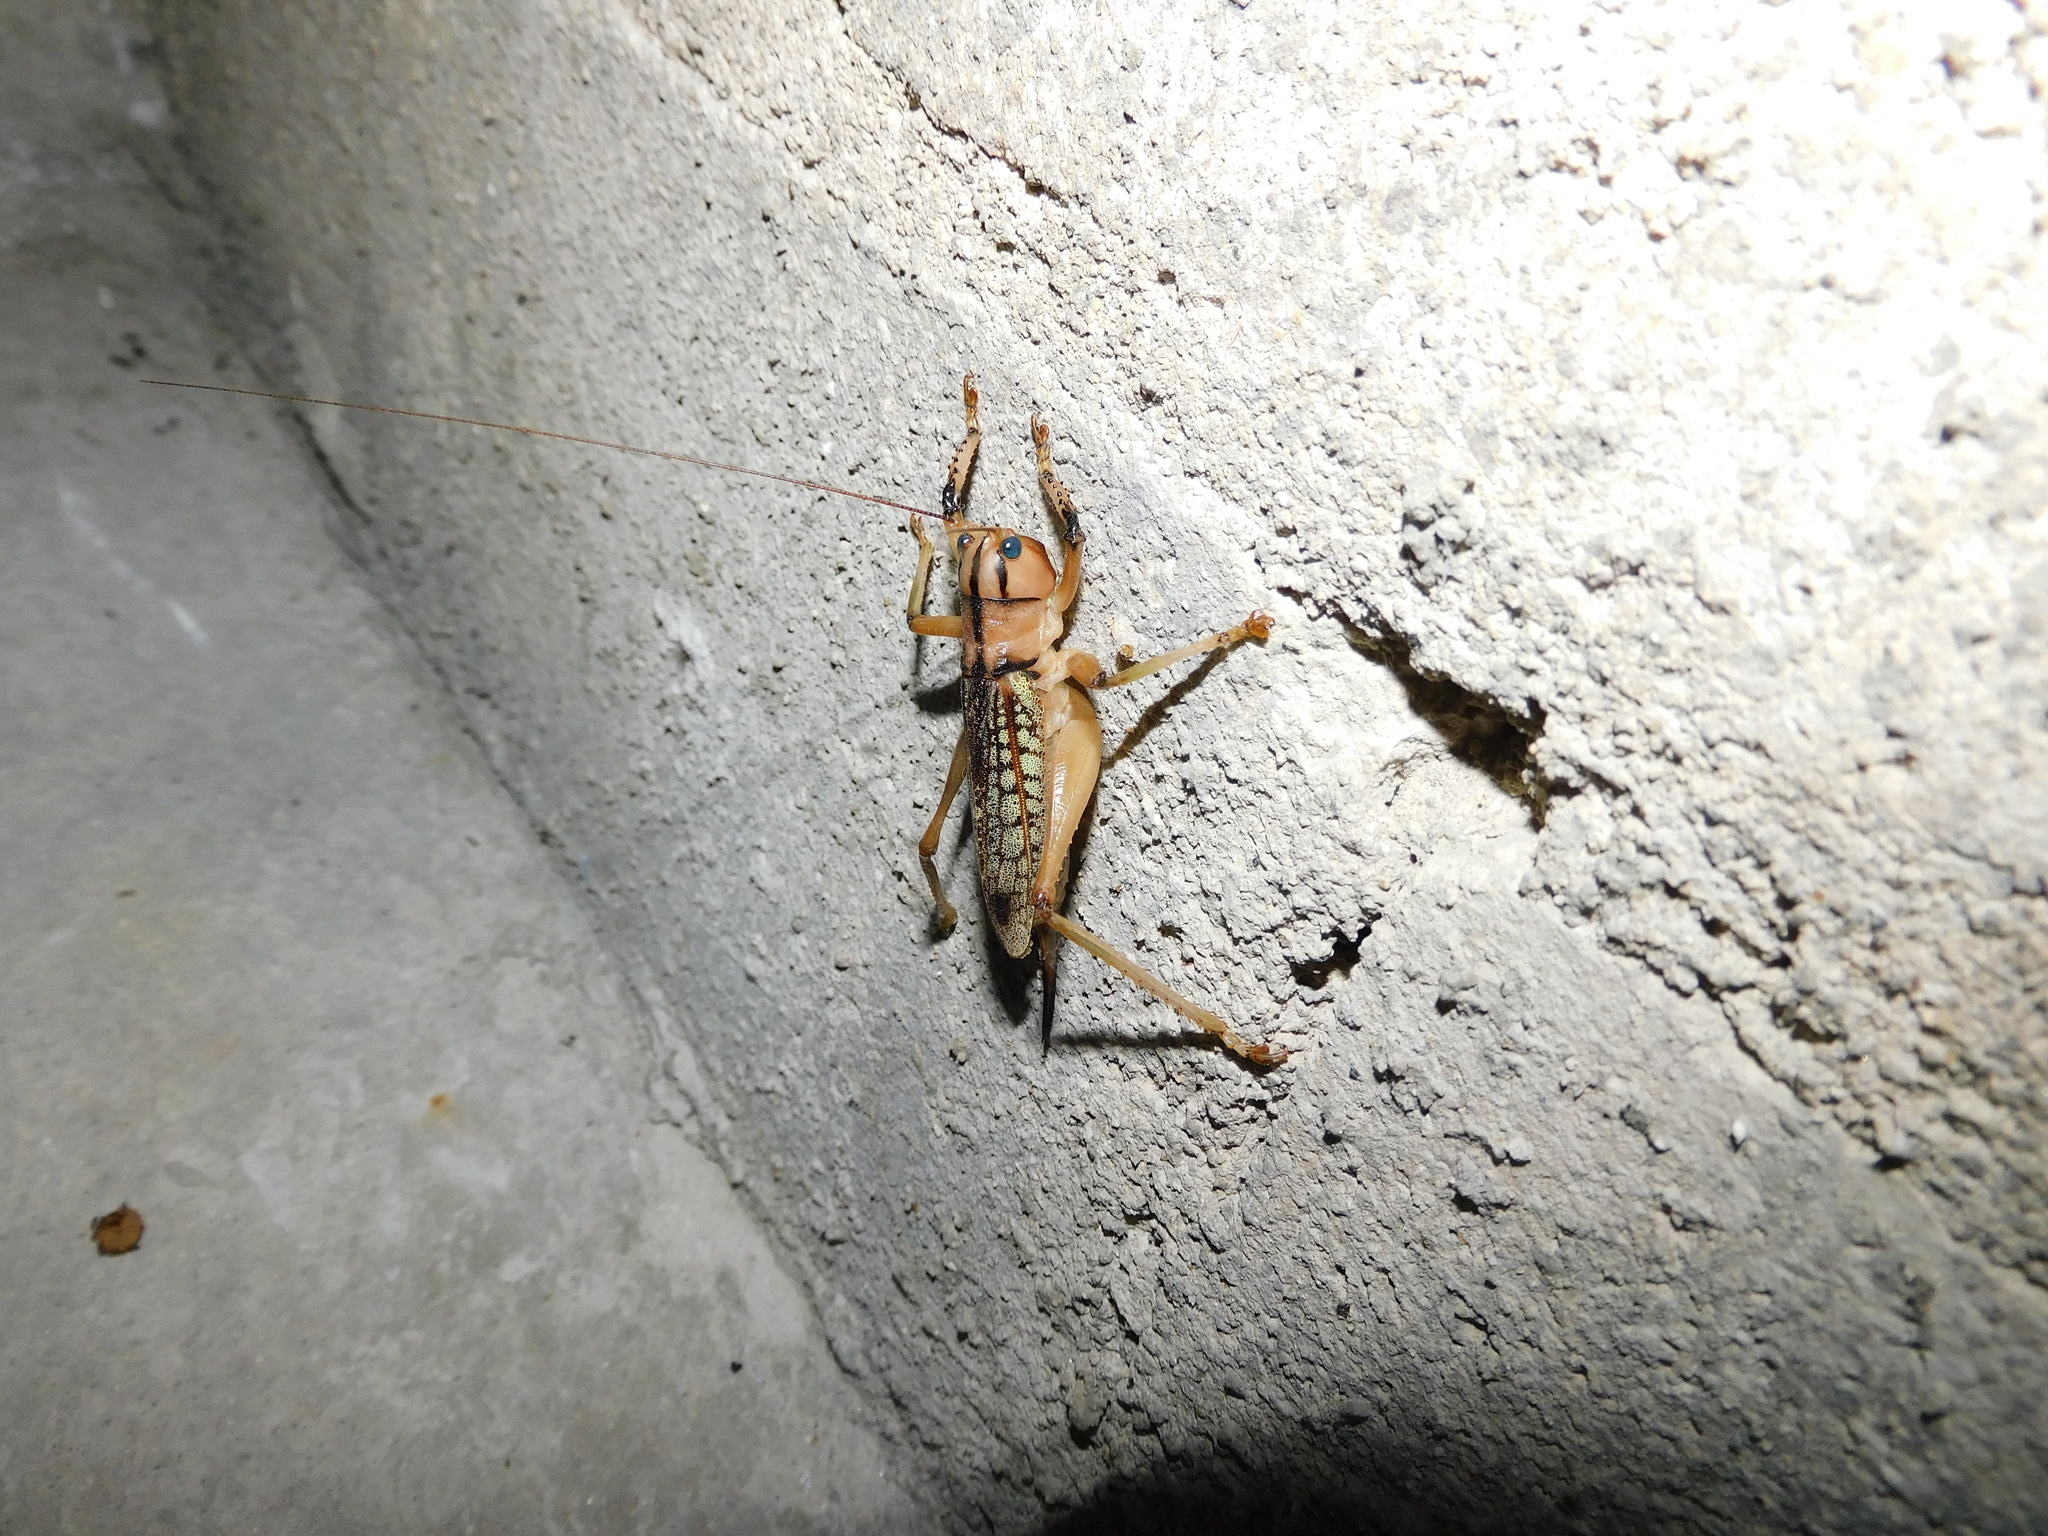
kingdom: Animalia
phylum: Arthropoda
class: Insecta
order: Orthoptera
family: Tettigoniidae
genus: Nastonotus
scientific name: Nastonotus foreli
